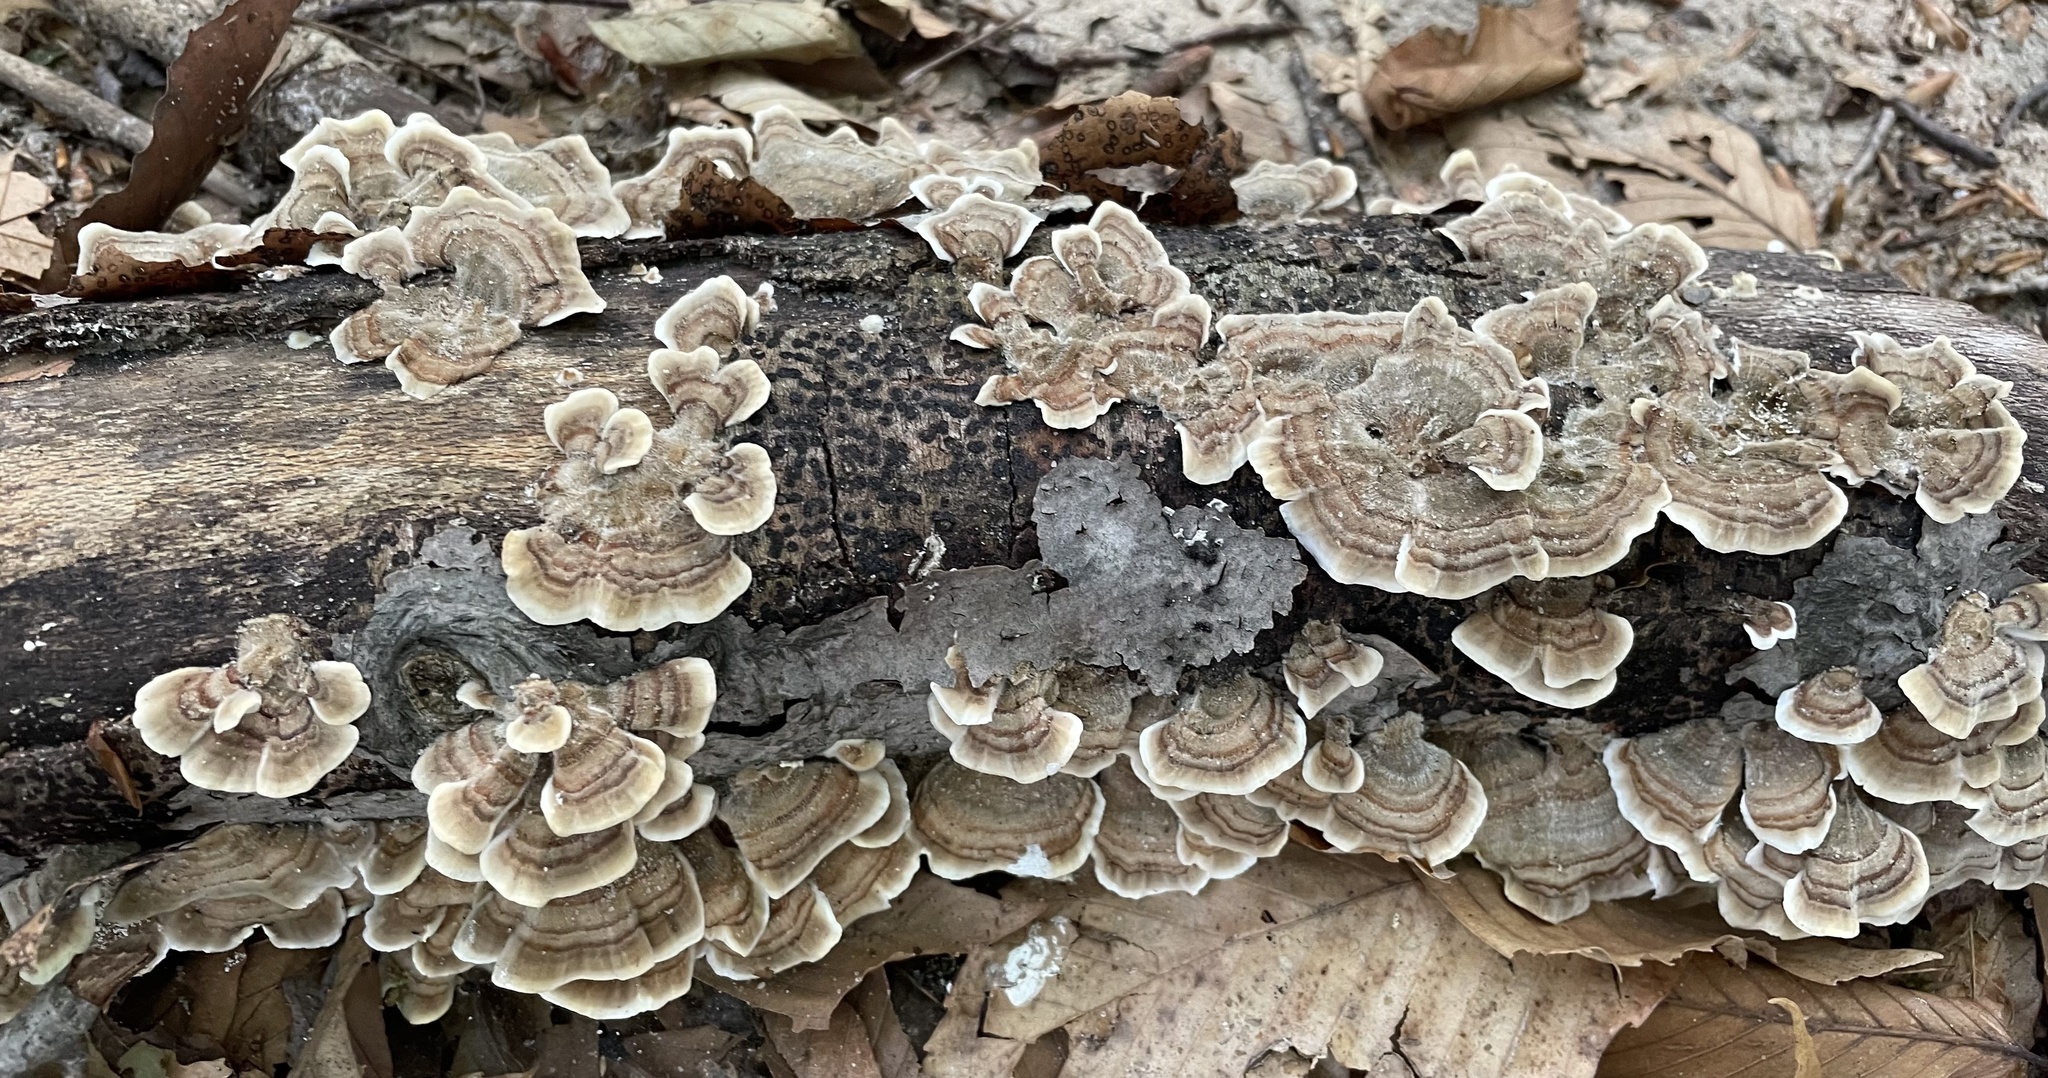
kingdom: Fungi
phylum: Basidiomycota
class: Agaricomycetes
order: Polyporales
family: Polyporaceae
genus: Trametes
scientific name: Trametes versicolor
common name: Turkeytail
